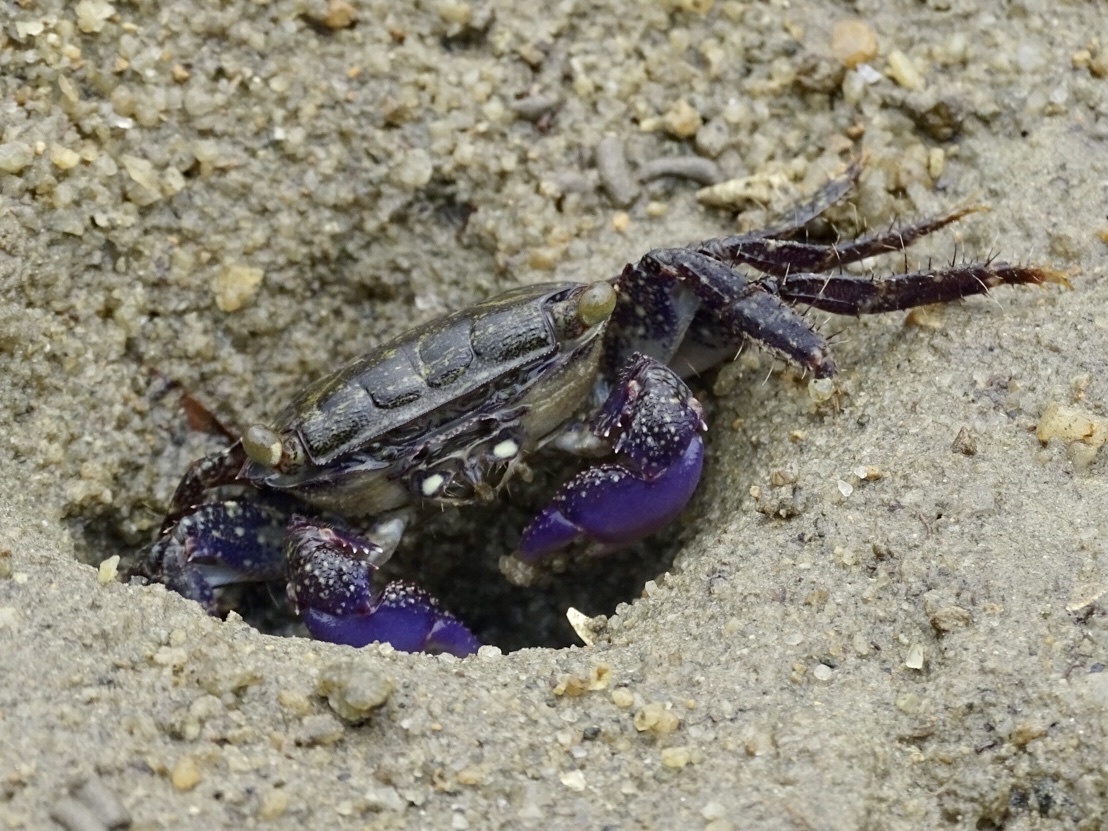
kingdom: Animalia
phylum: Arthropoda
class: Malacostraca
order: Decapoda
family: Grapsidae
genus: Metopograpsus
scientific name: Metopograpsus frontalis
